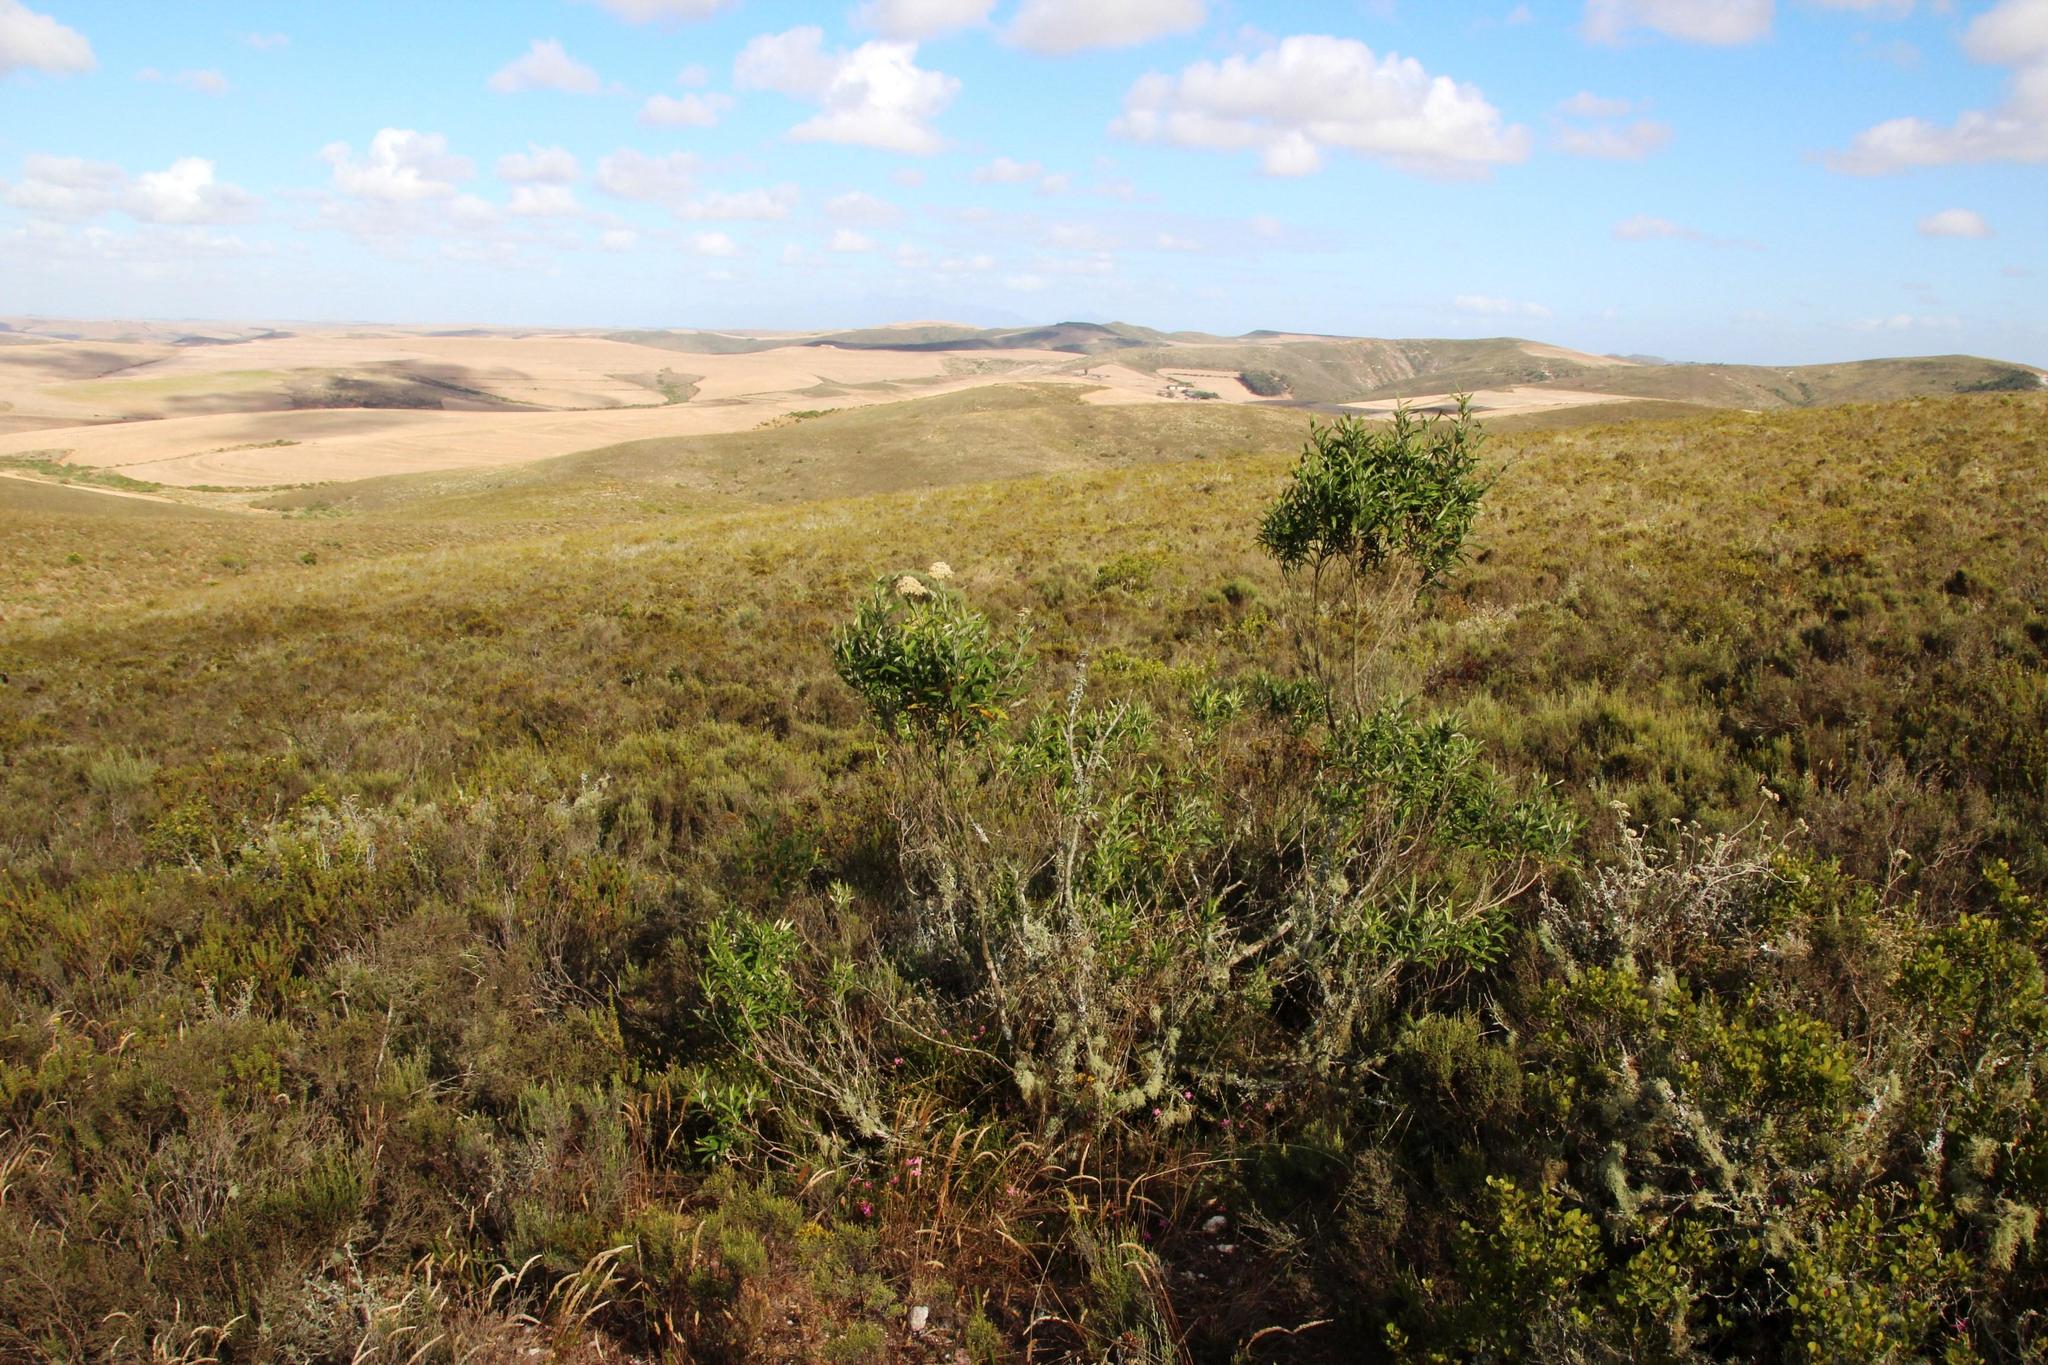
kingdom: Plantae
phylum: Tracheophyta
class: Magnoliopsida
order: Lamiales
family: Scrophulariaceae
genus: Buddleja
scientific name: Buddleja saligna
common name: False olive
